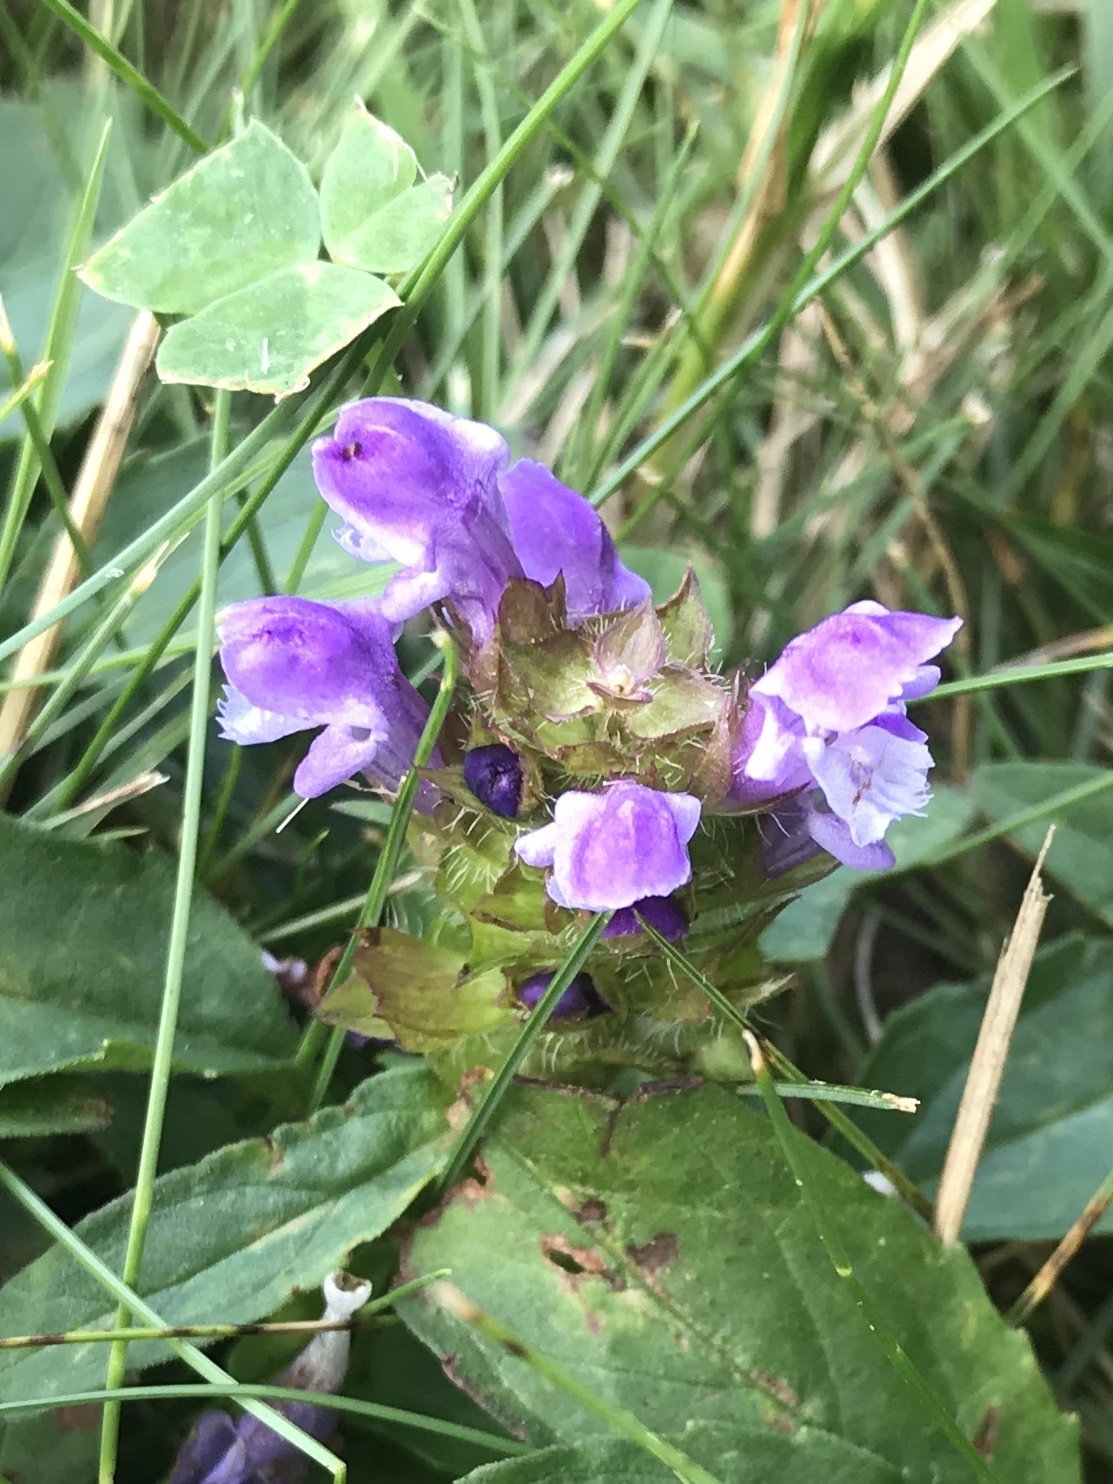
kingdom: Plantae
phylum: Tracheophyta
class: Magnoliopsida
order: Lamiales
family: Lamiaceae
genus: Prunella
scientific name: Prunella vulgaris
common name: Heal-all
